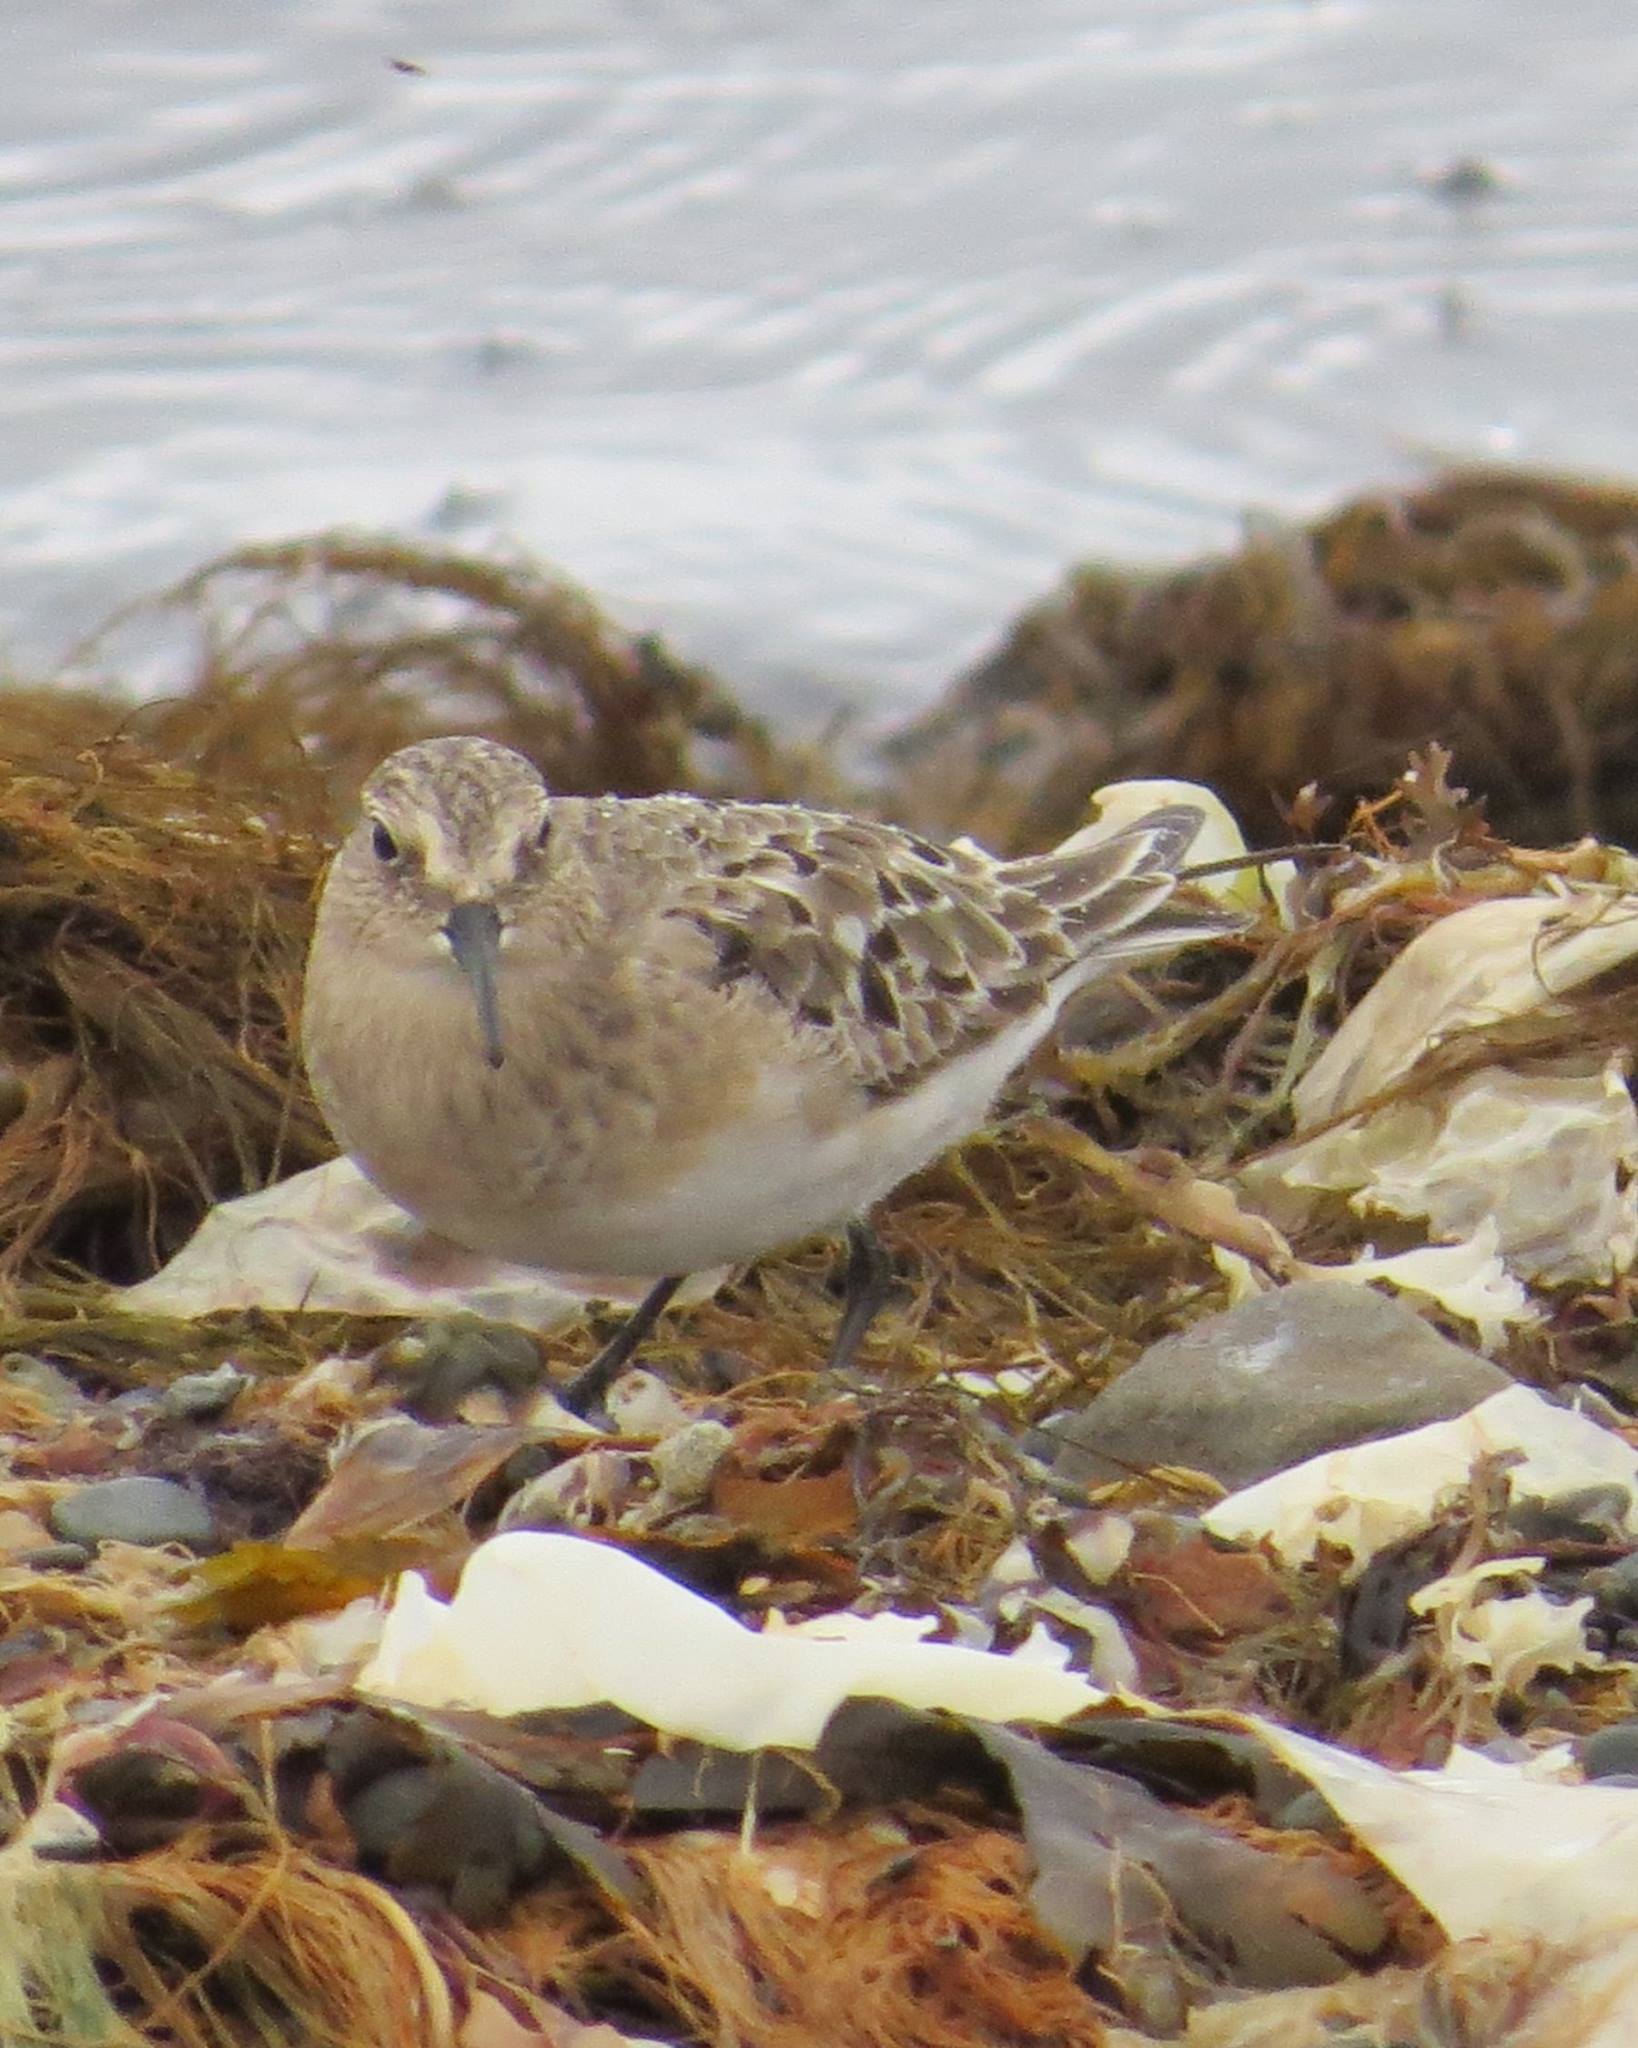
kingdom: Animalia
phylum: Chordata
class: Aves
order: Charadriiformes
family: Scolopacidae
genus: Calidris
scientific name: Calidris bairdii
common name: Baird's sandpiper
